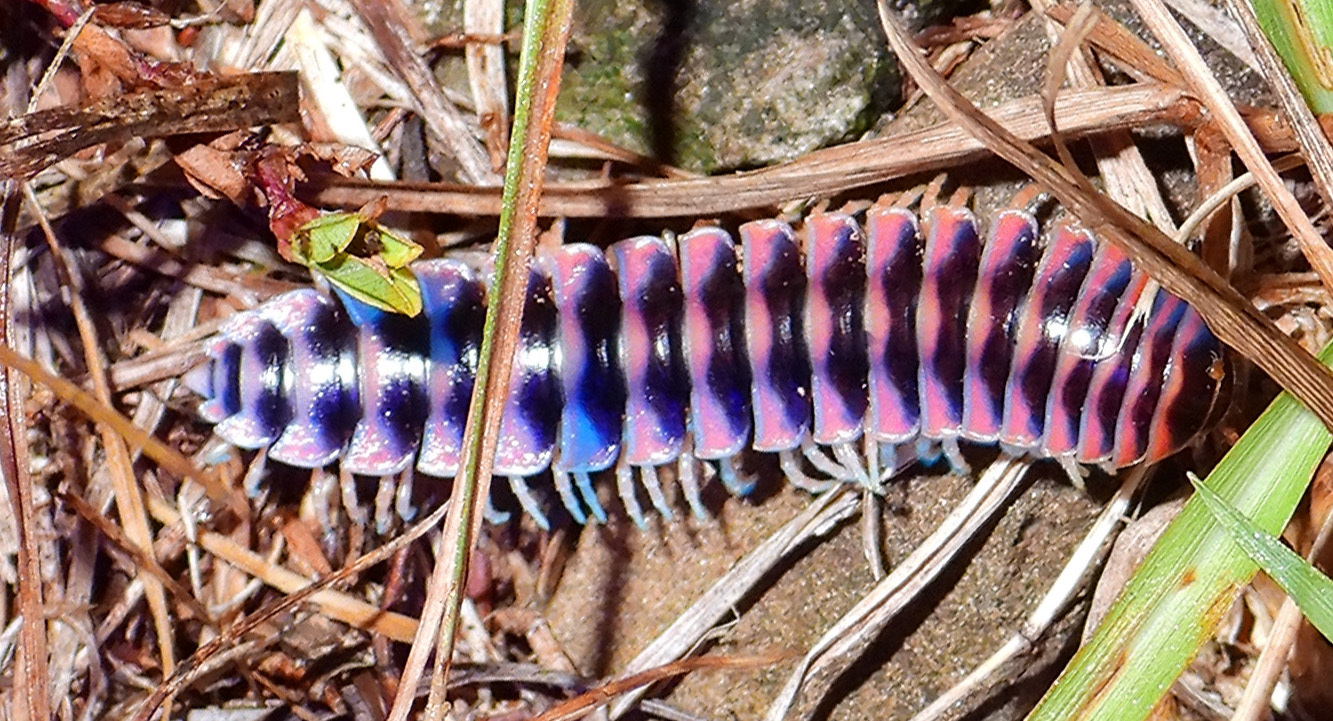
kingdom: Animalia
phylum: Arthropoda
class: Diplopoda
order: Polydesmida
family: Xystodesmidae
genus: Cherokia
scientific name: Cherokia georgiana
